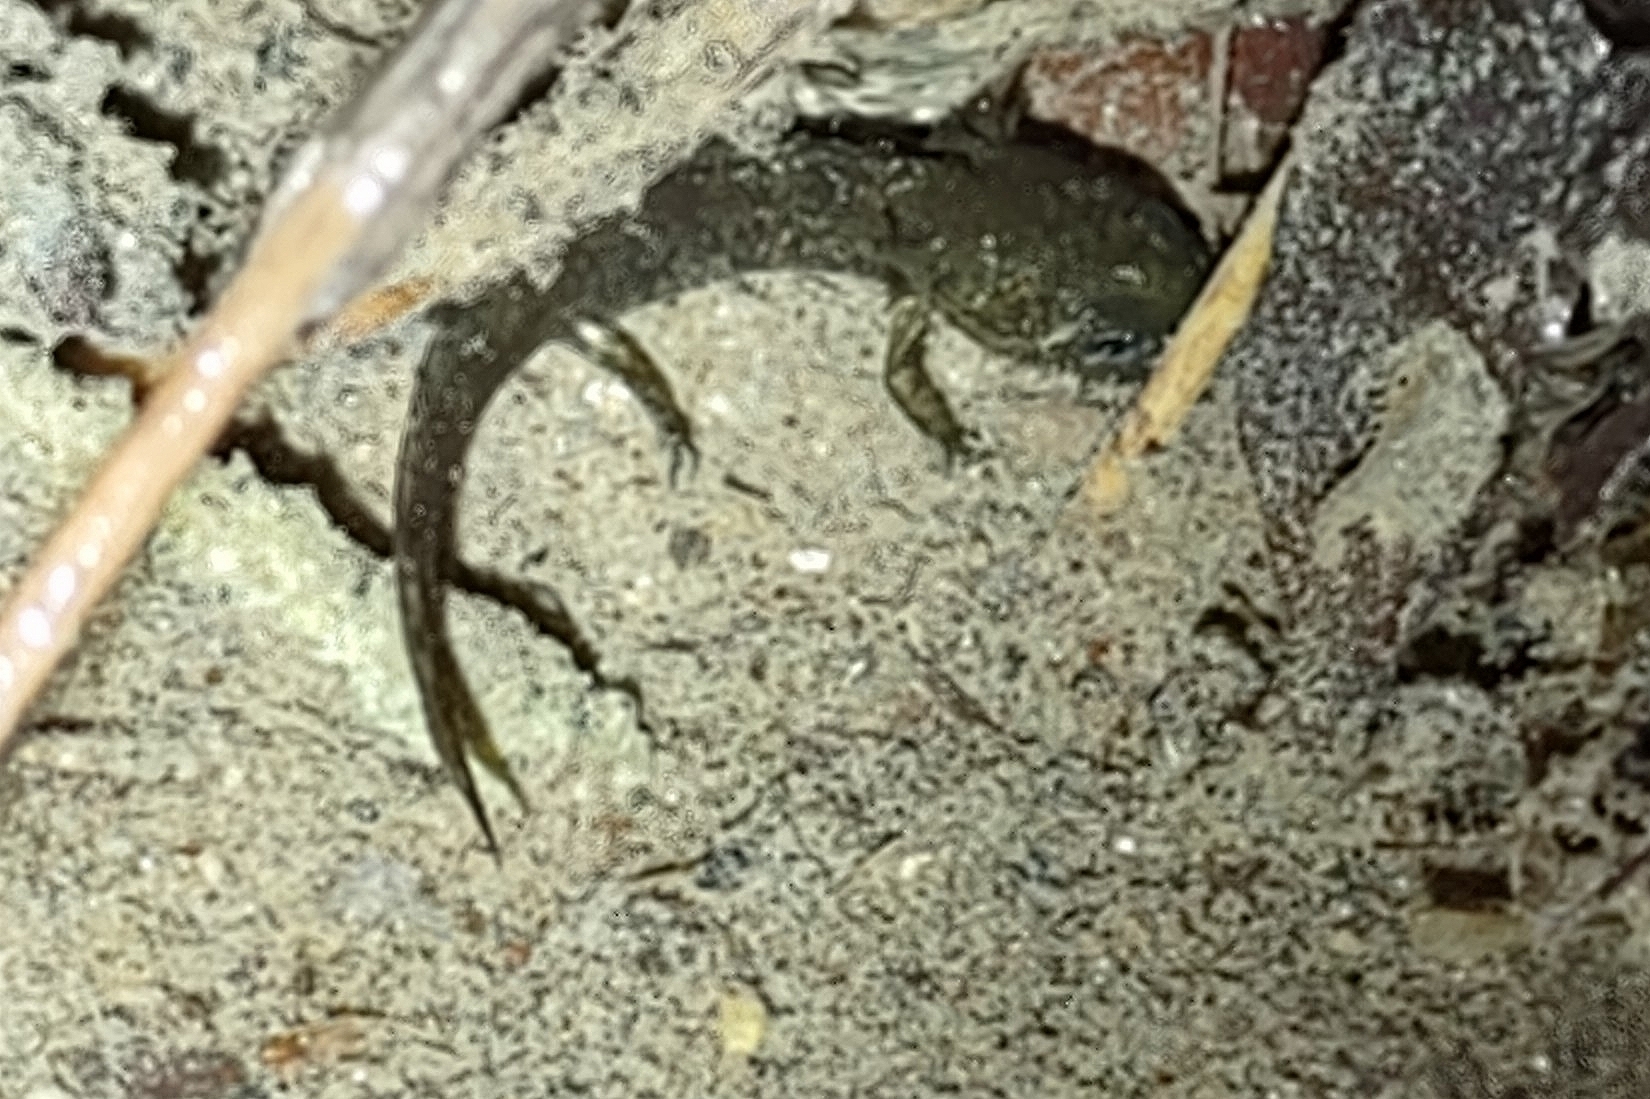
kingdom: Animalia
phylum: Chordata
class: Amphibia
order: Caudata
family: Salamandridae
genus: Salamandra
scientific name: Salamandra salamandra
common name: Fire salamander
